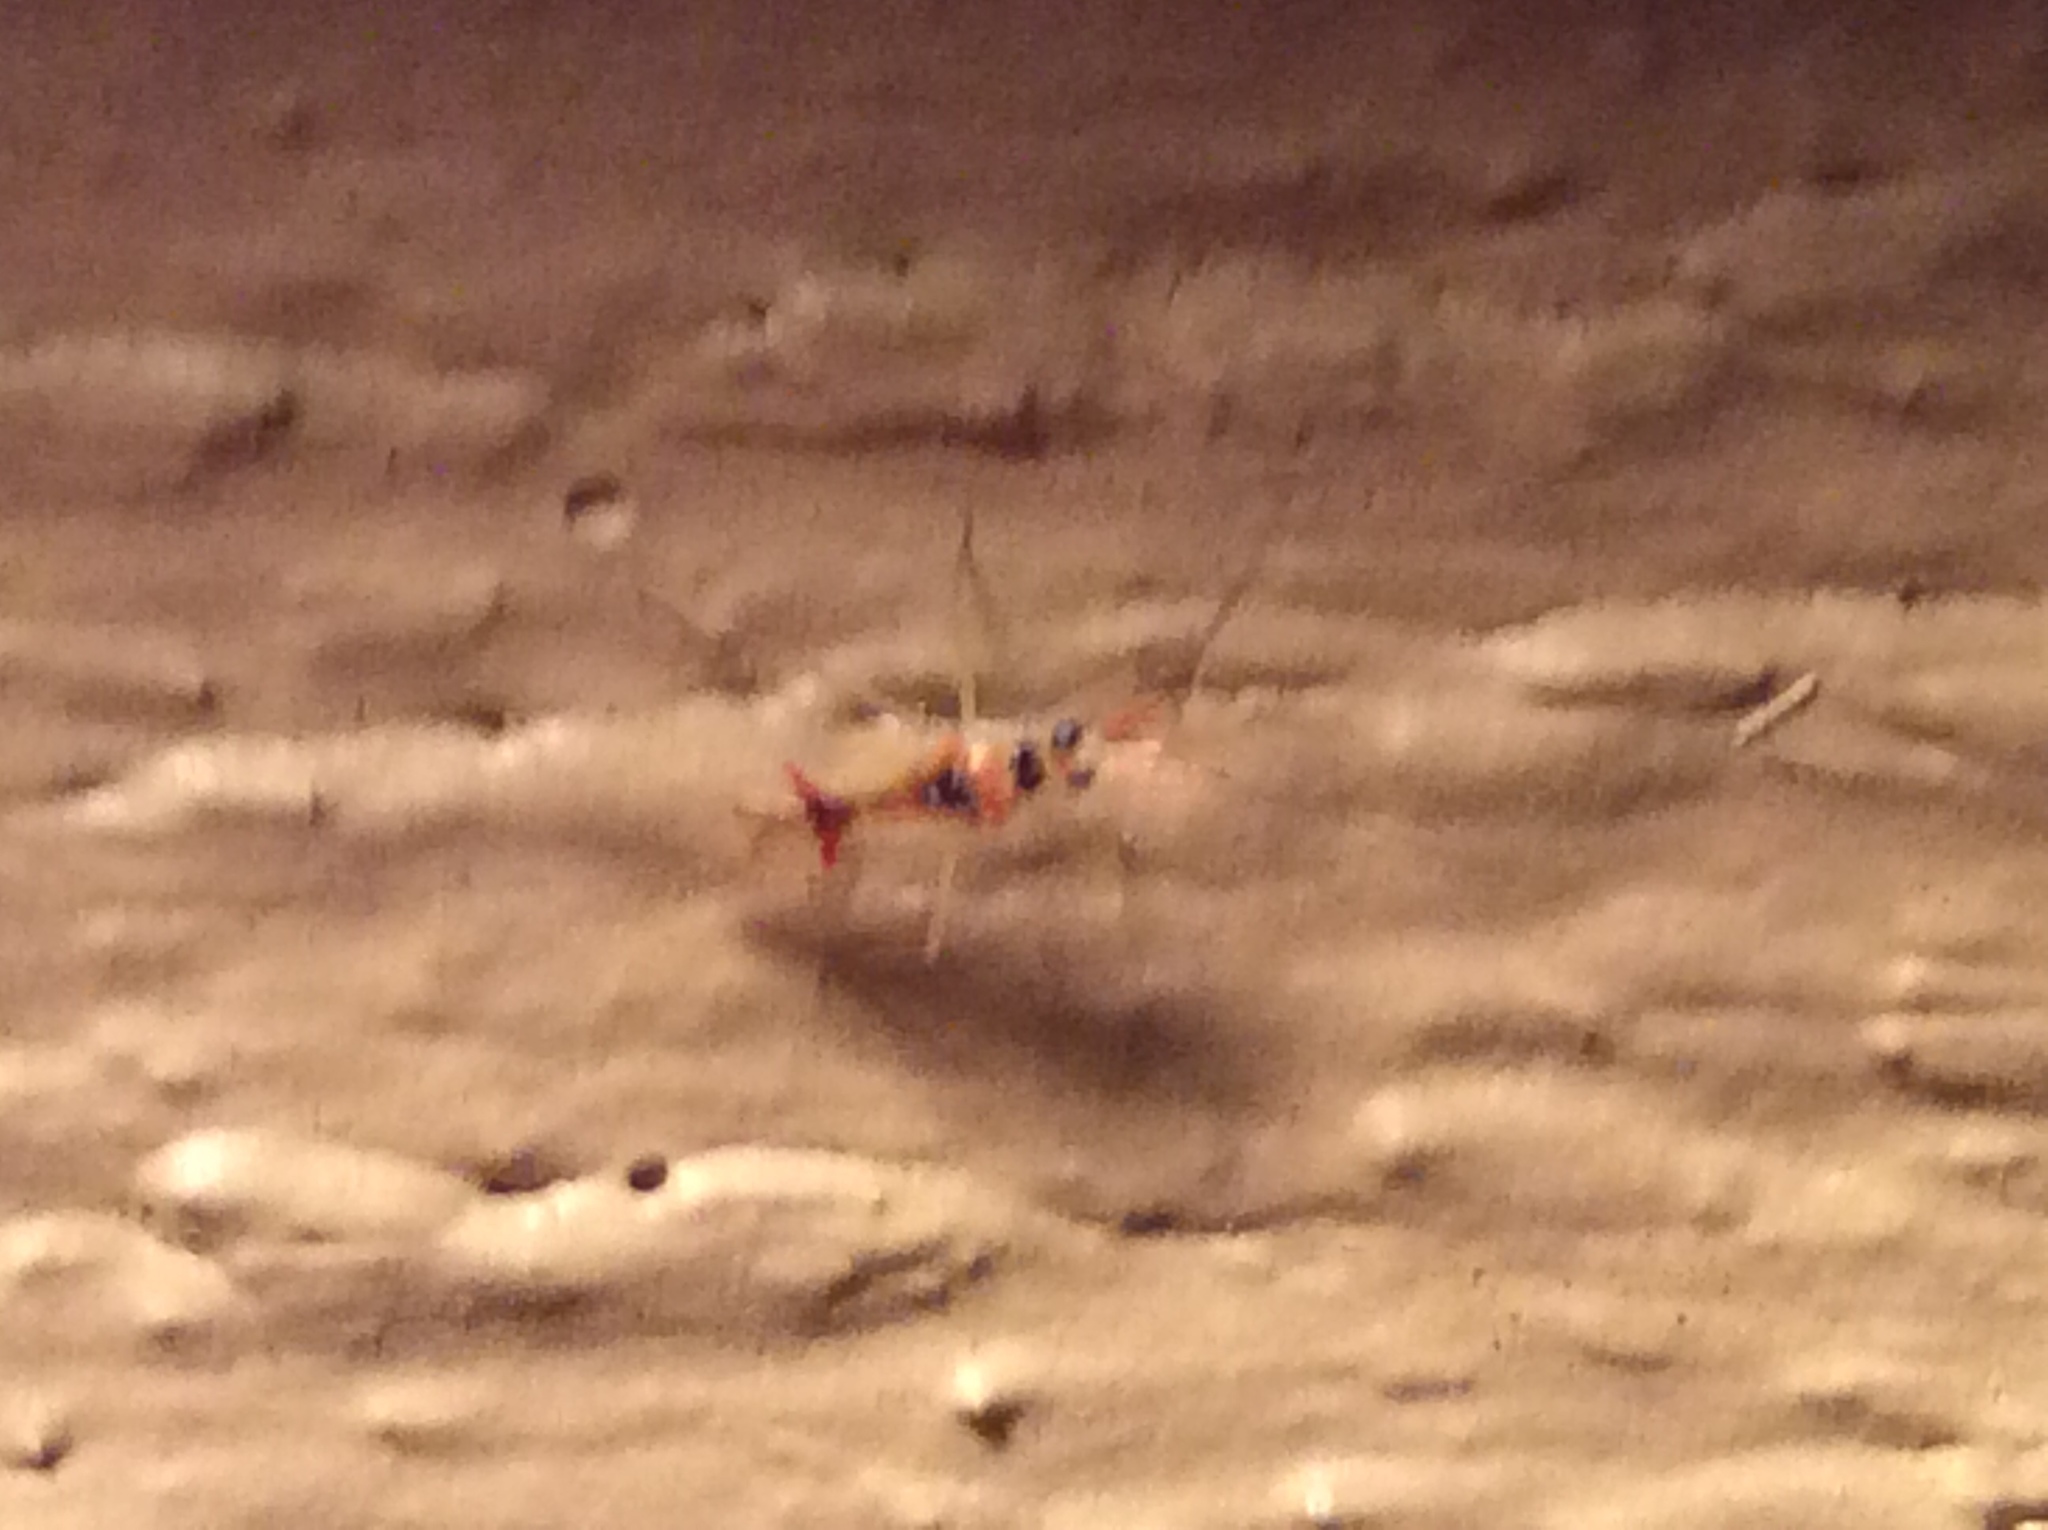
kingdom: Animalia
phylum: Arthropoda
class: Insecta
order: Hemiptera
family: Miridae
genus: Hyaliodes
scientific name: Hyaliodes harti
